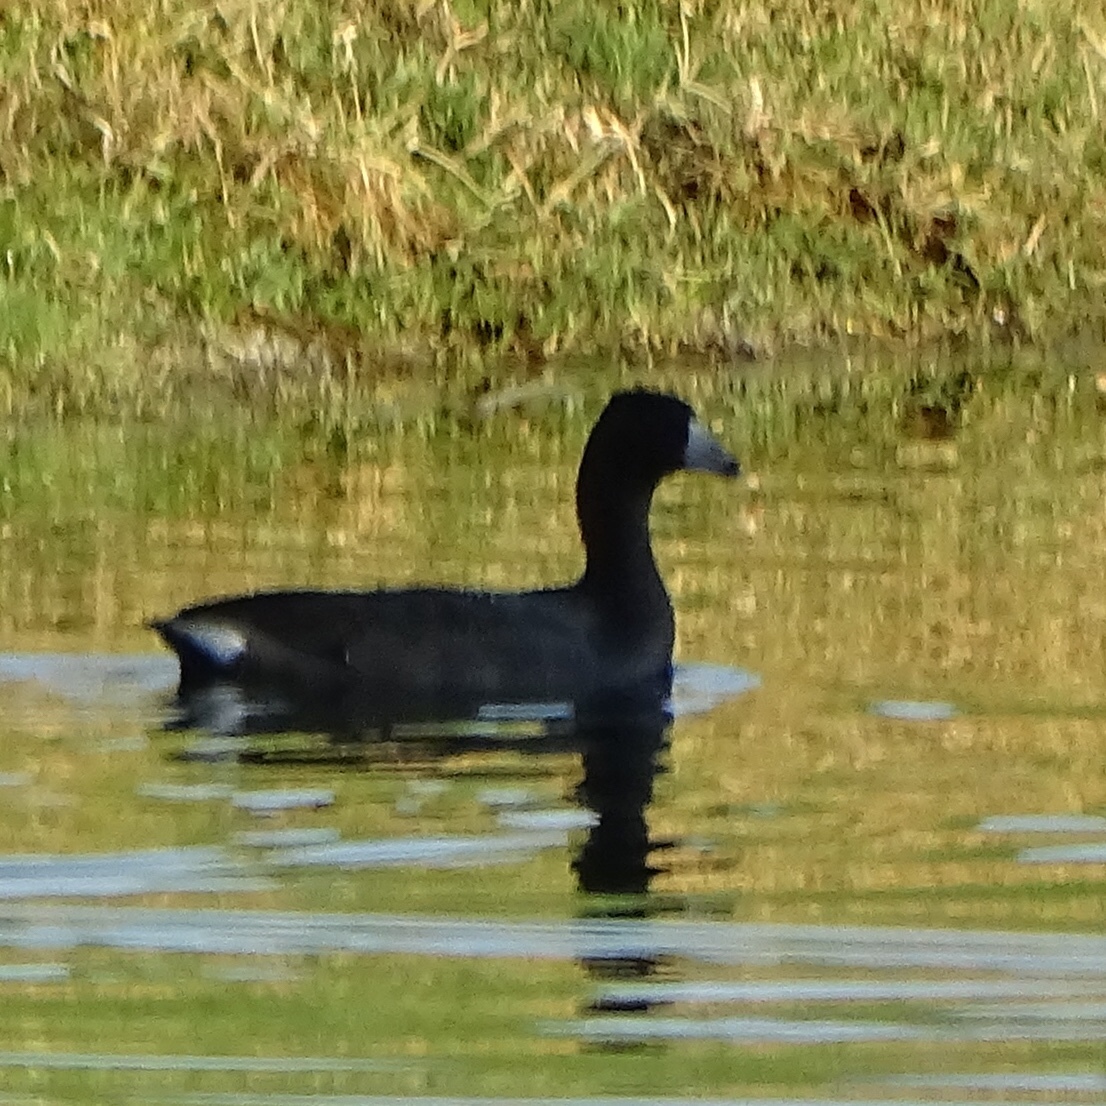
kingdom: Animalia
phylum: Chordata
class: Aves
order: Gruiformes
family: Rallidae
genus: Fulica
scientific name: Fulica americana
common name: American coot
